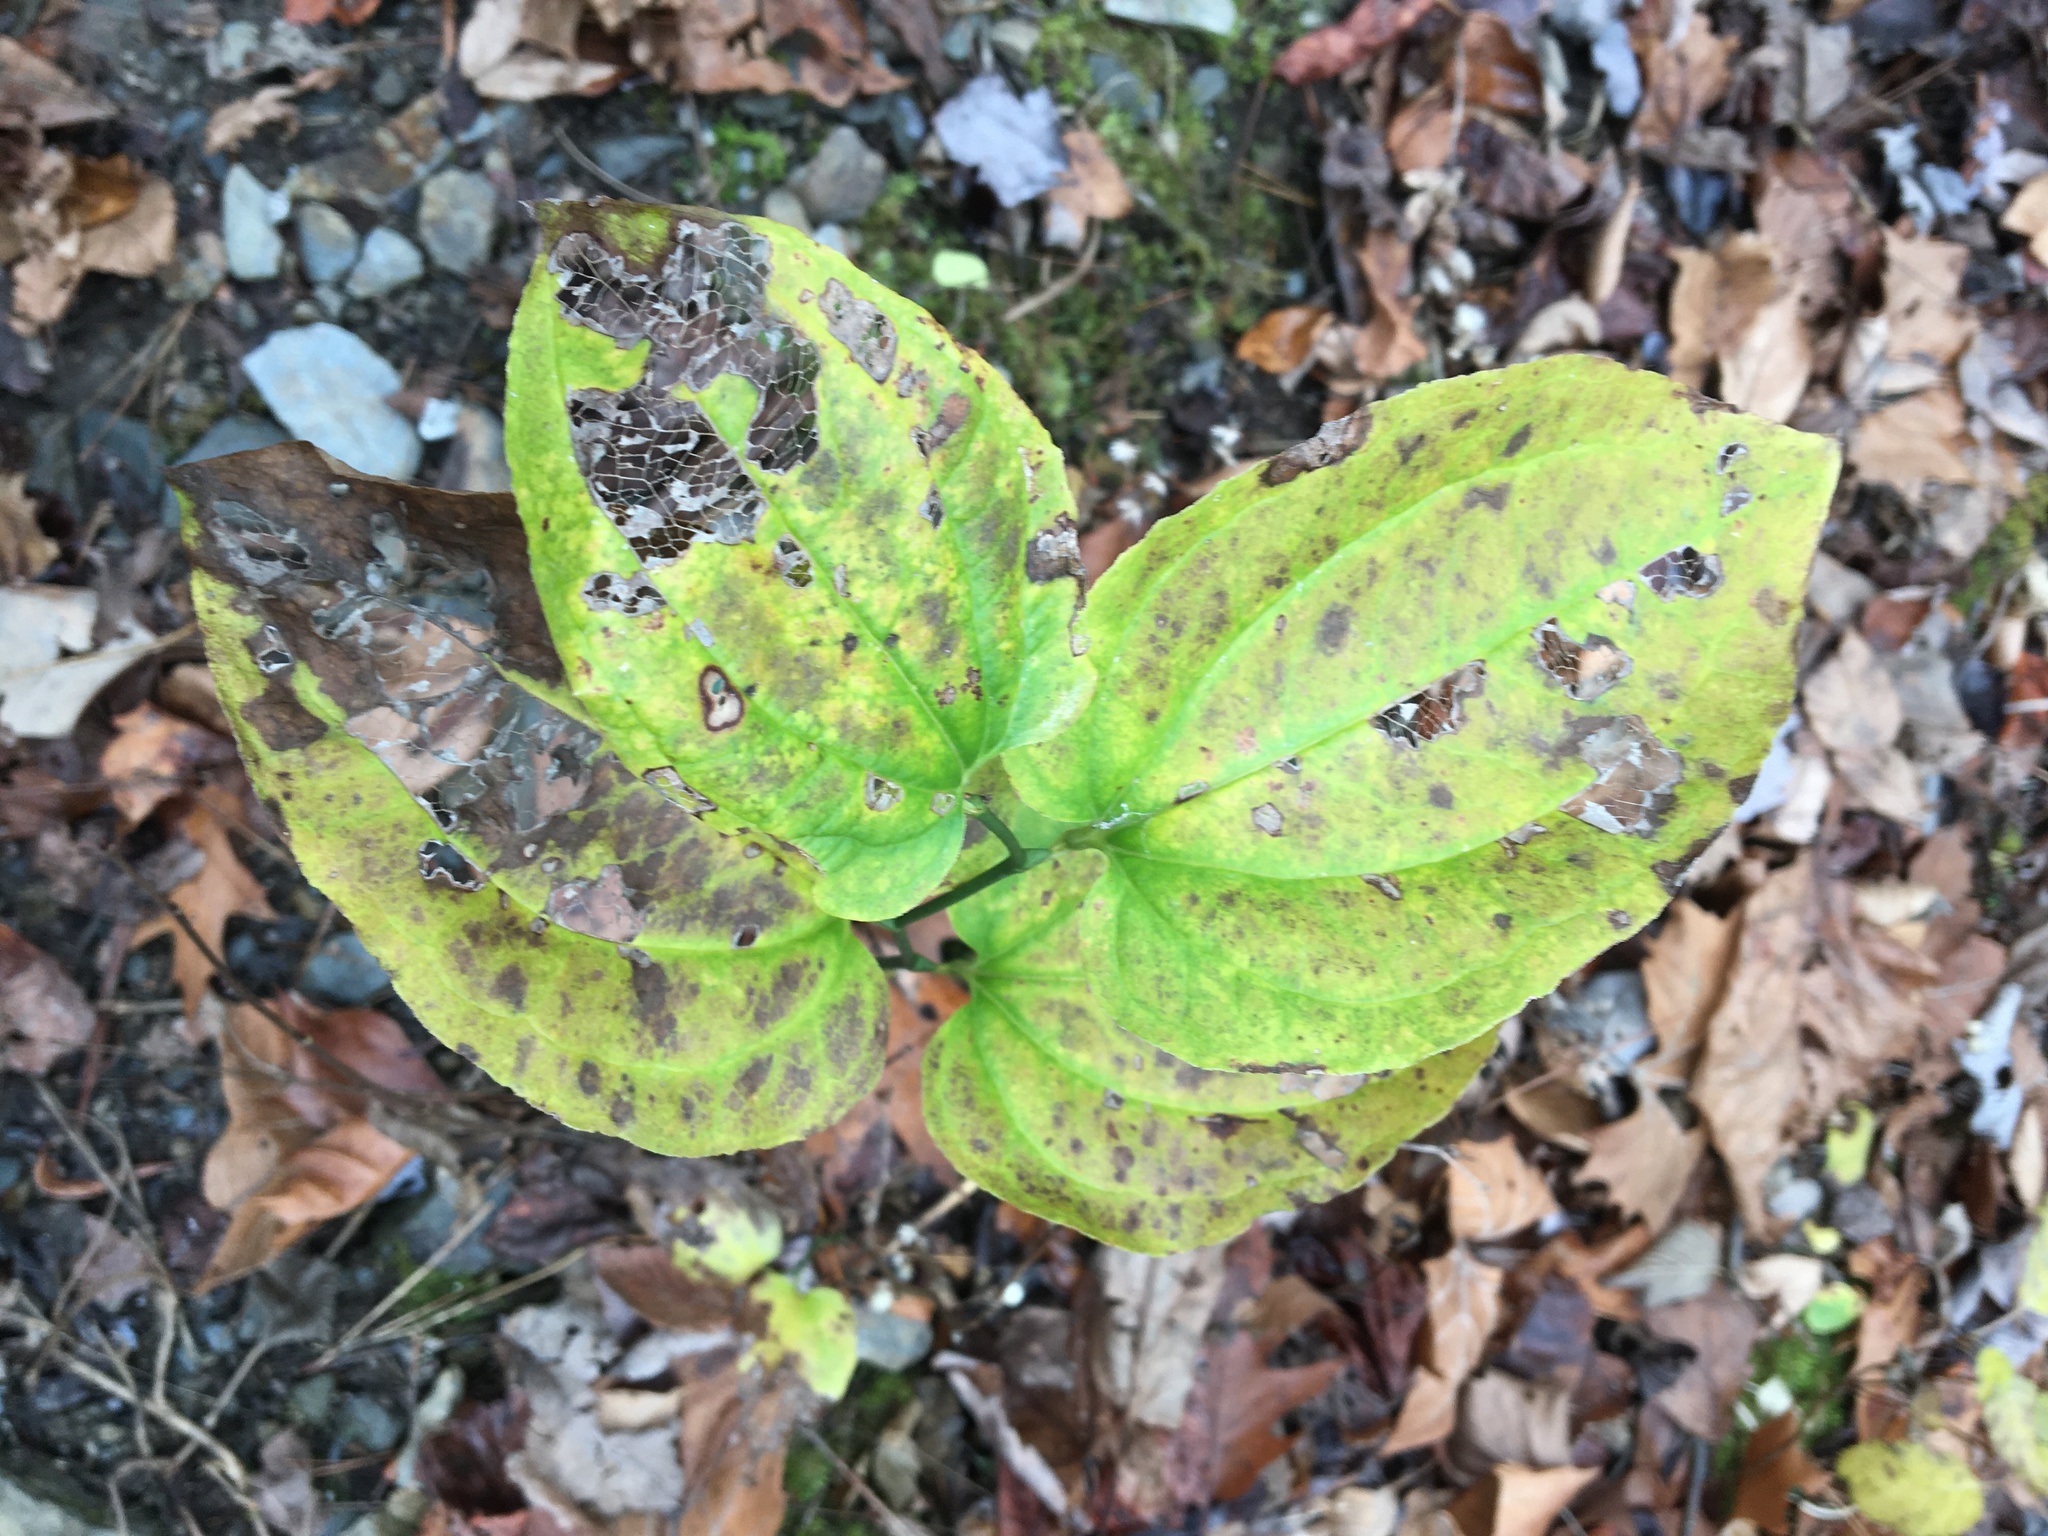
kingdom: Plantae
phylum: Tracheophyta
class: Liliopsida
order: Liliales
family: Smilacaceae
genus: Smilax
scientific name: Smilax rotundifolia
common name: Bullbriar
